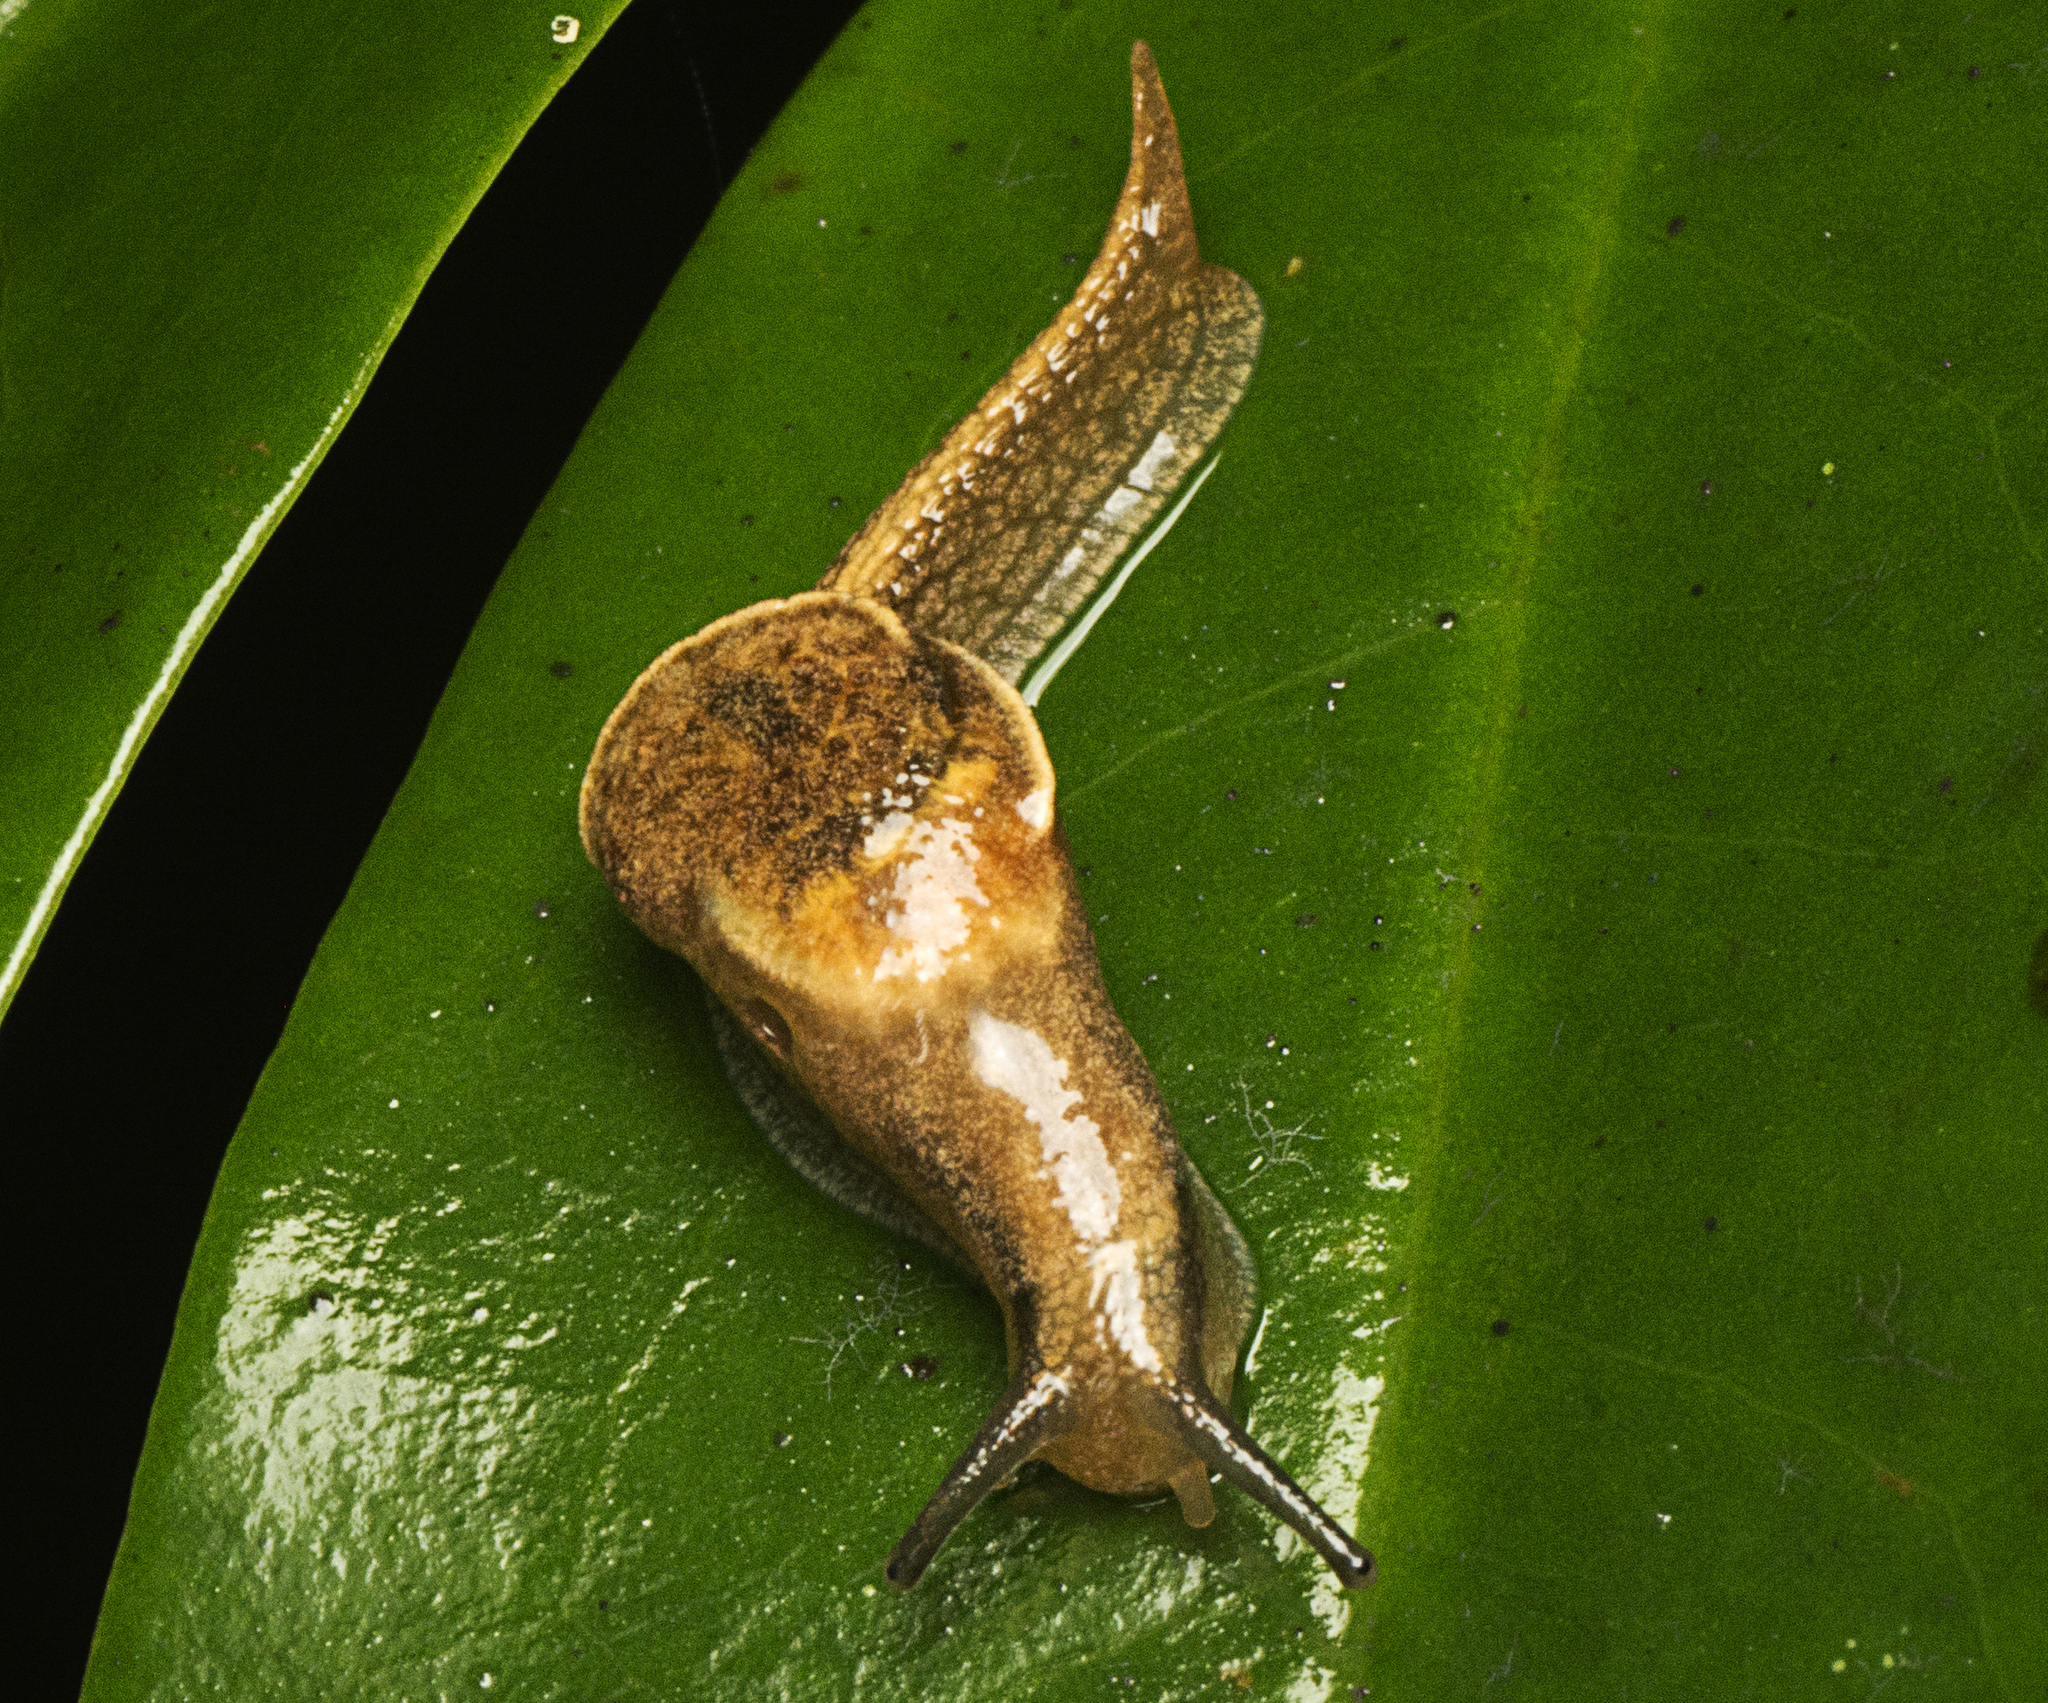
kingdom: Animalia
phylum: Mollusca
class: Gastropoda
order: Stylommatophora
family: Helicarionidae
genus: Ubiquitarion
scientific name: Ubiquitarion iridis
